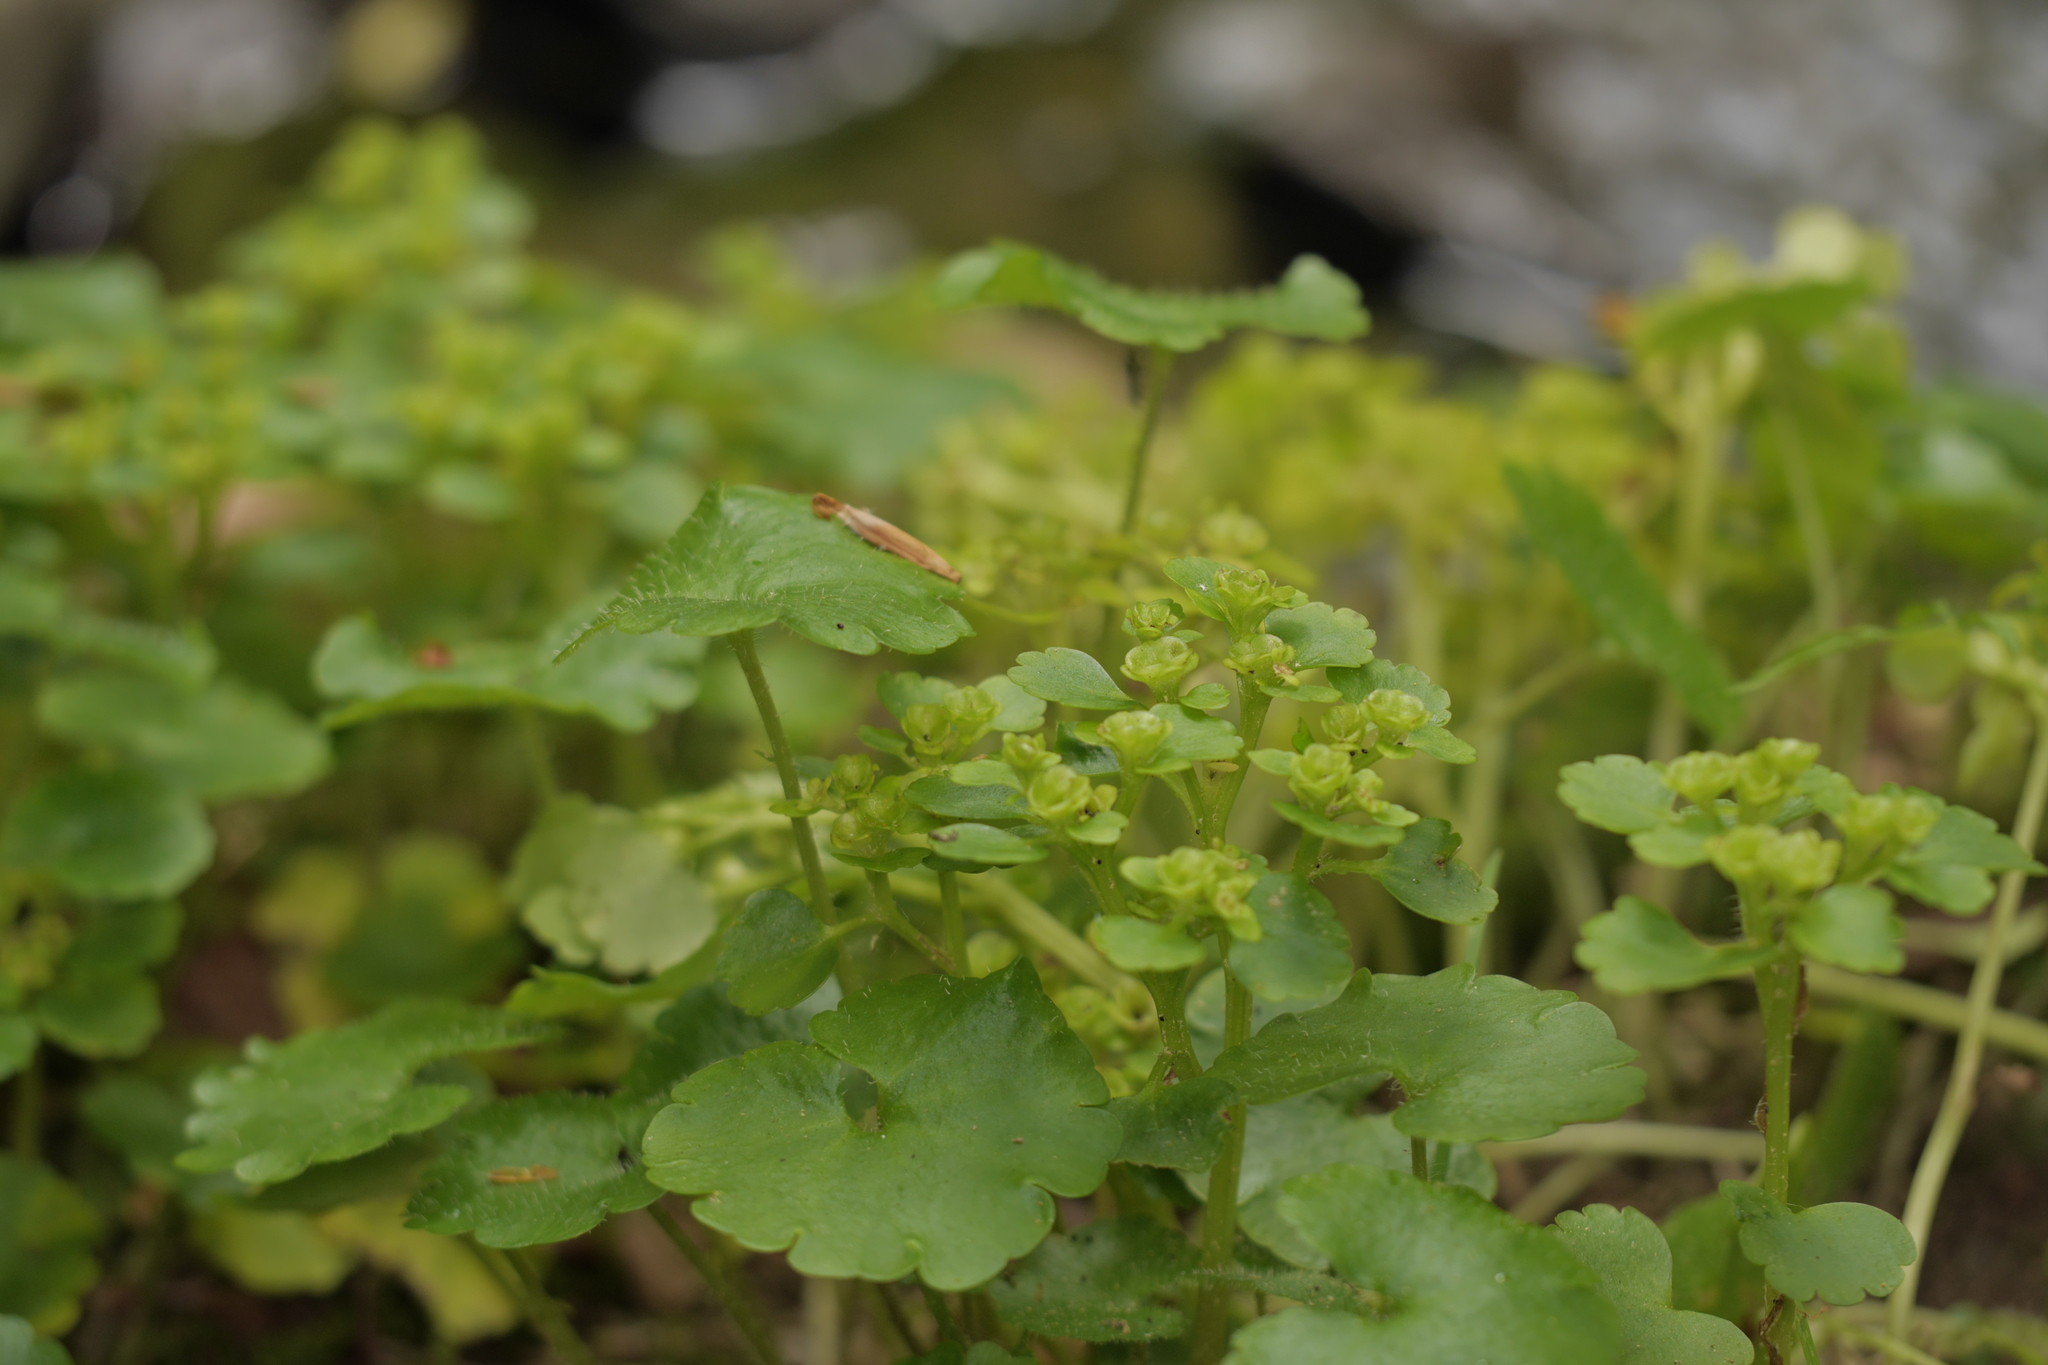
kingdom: Plantae
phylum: Tracheophyta
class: Magnoliopsida
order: Saxifragales
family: Saxifragaceae
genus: Chrysosplenium
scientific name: Chrysosplenium alternifolium
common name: Alternate-leaved golden-saxifrage
